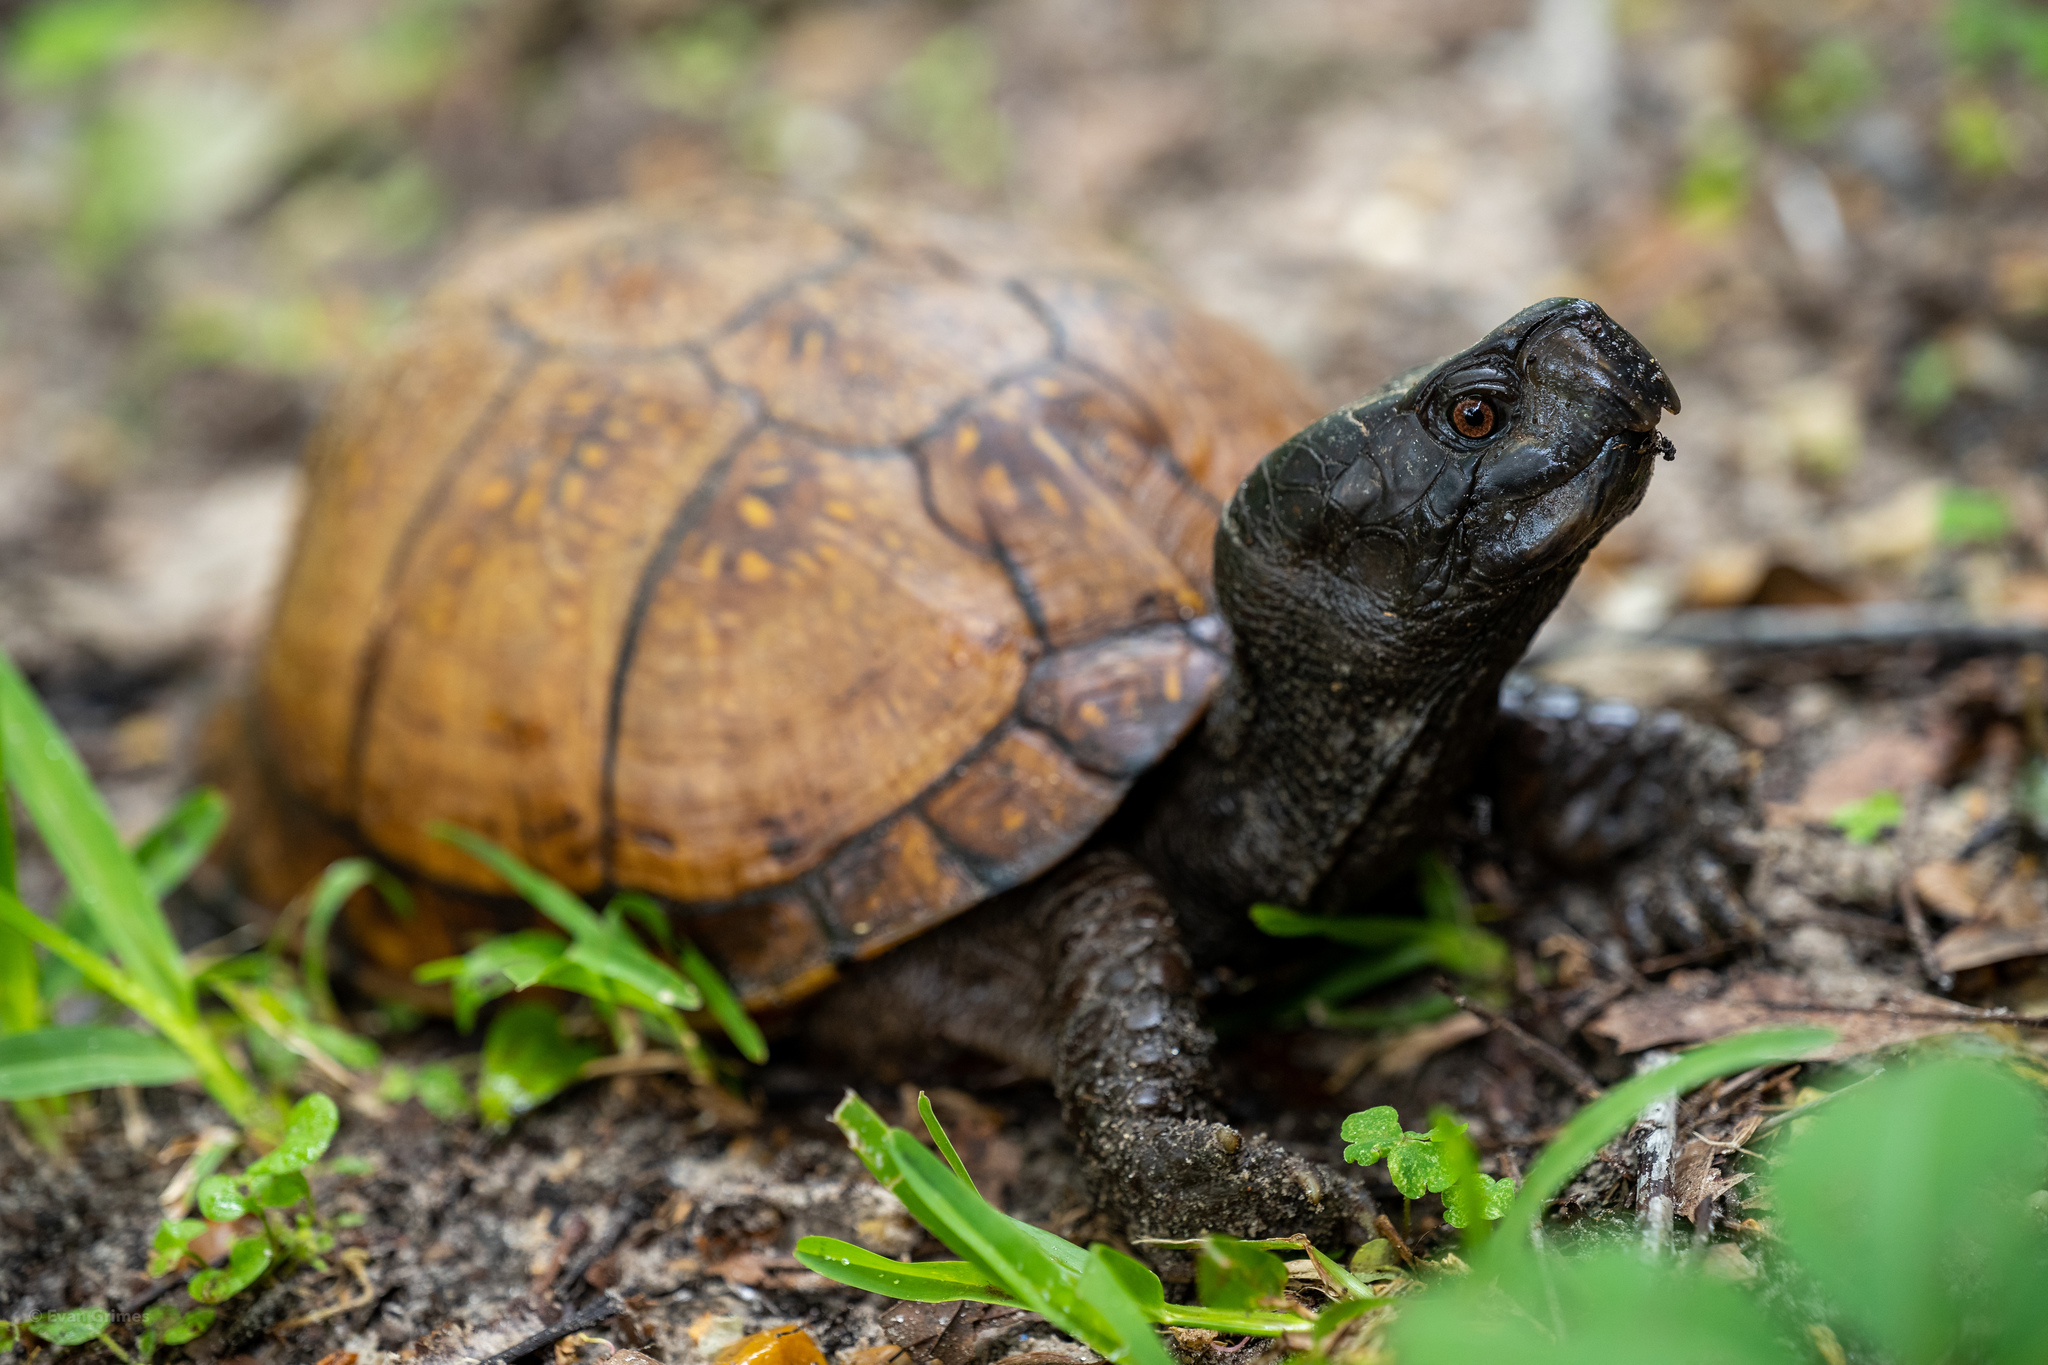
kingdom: Animalia
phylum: Chordata
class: Testudines
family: Emydidae
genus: Terrapene
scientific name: Terrapene carolina
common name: Common box turtle
